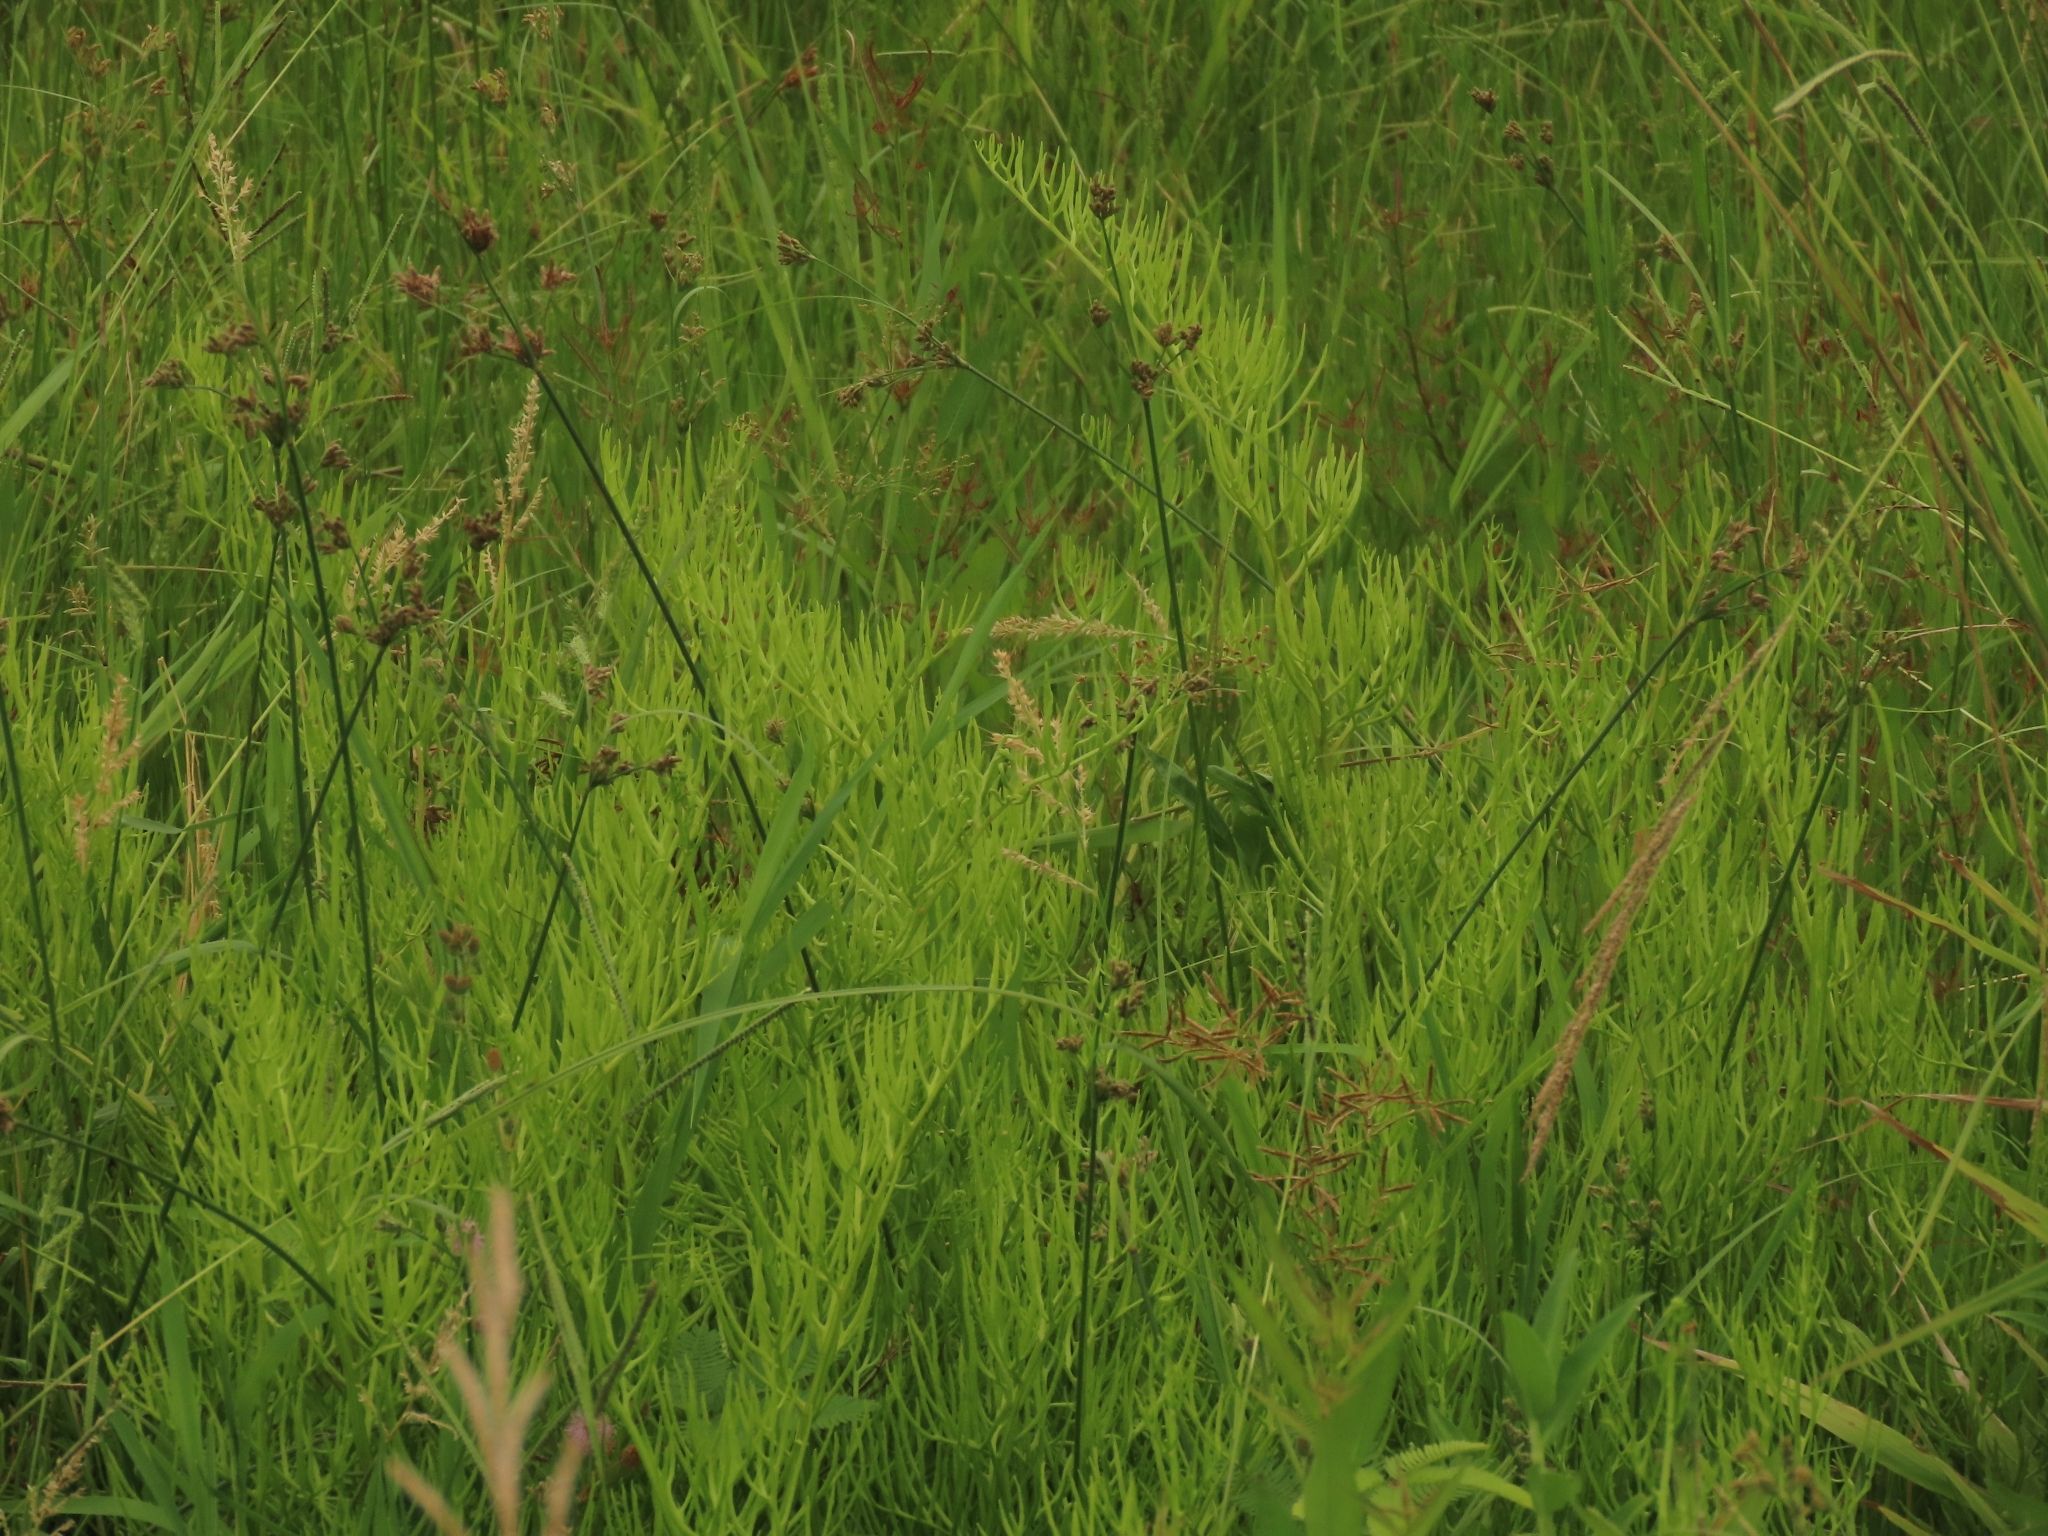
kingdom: Plantae
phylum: Tracheophyta
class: Polypodiopsida
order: Polypodiales
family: Pteridaceae
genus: Ceratopteris
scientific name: Ceratopteris thalictroides
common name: Water fern
